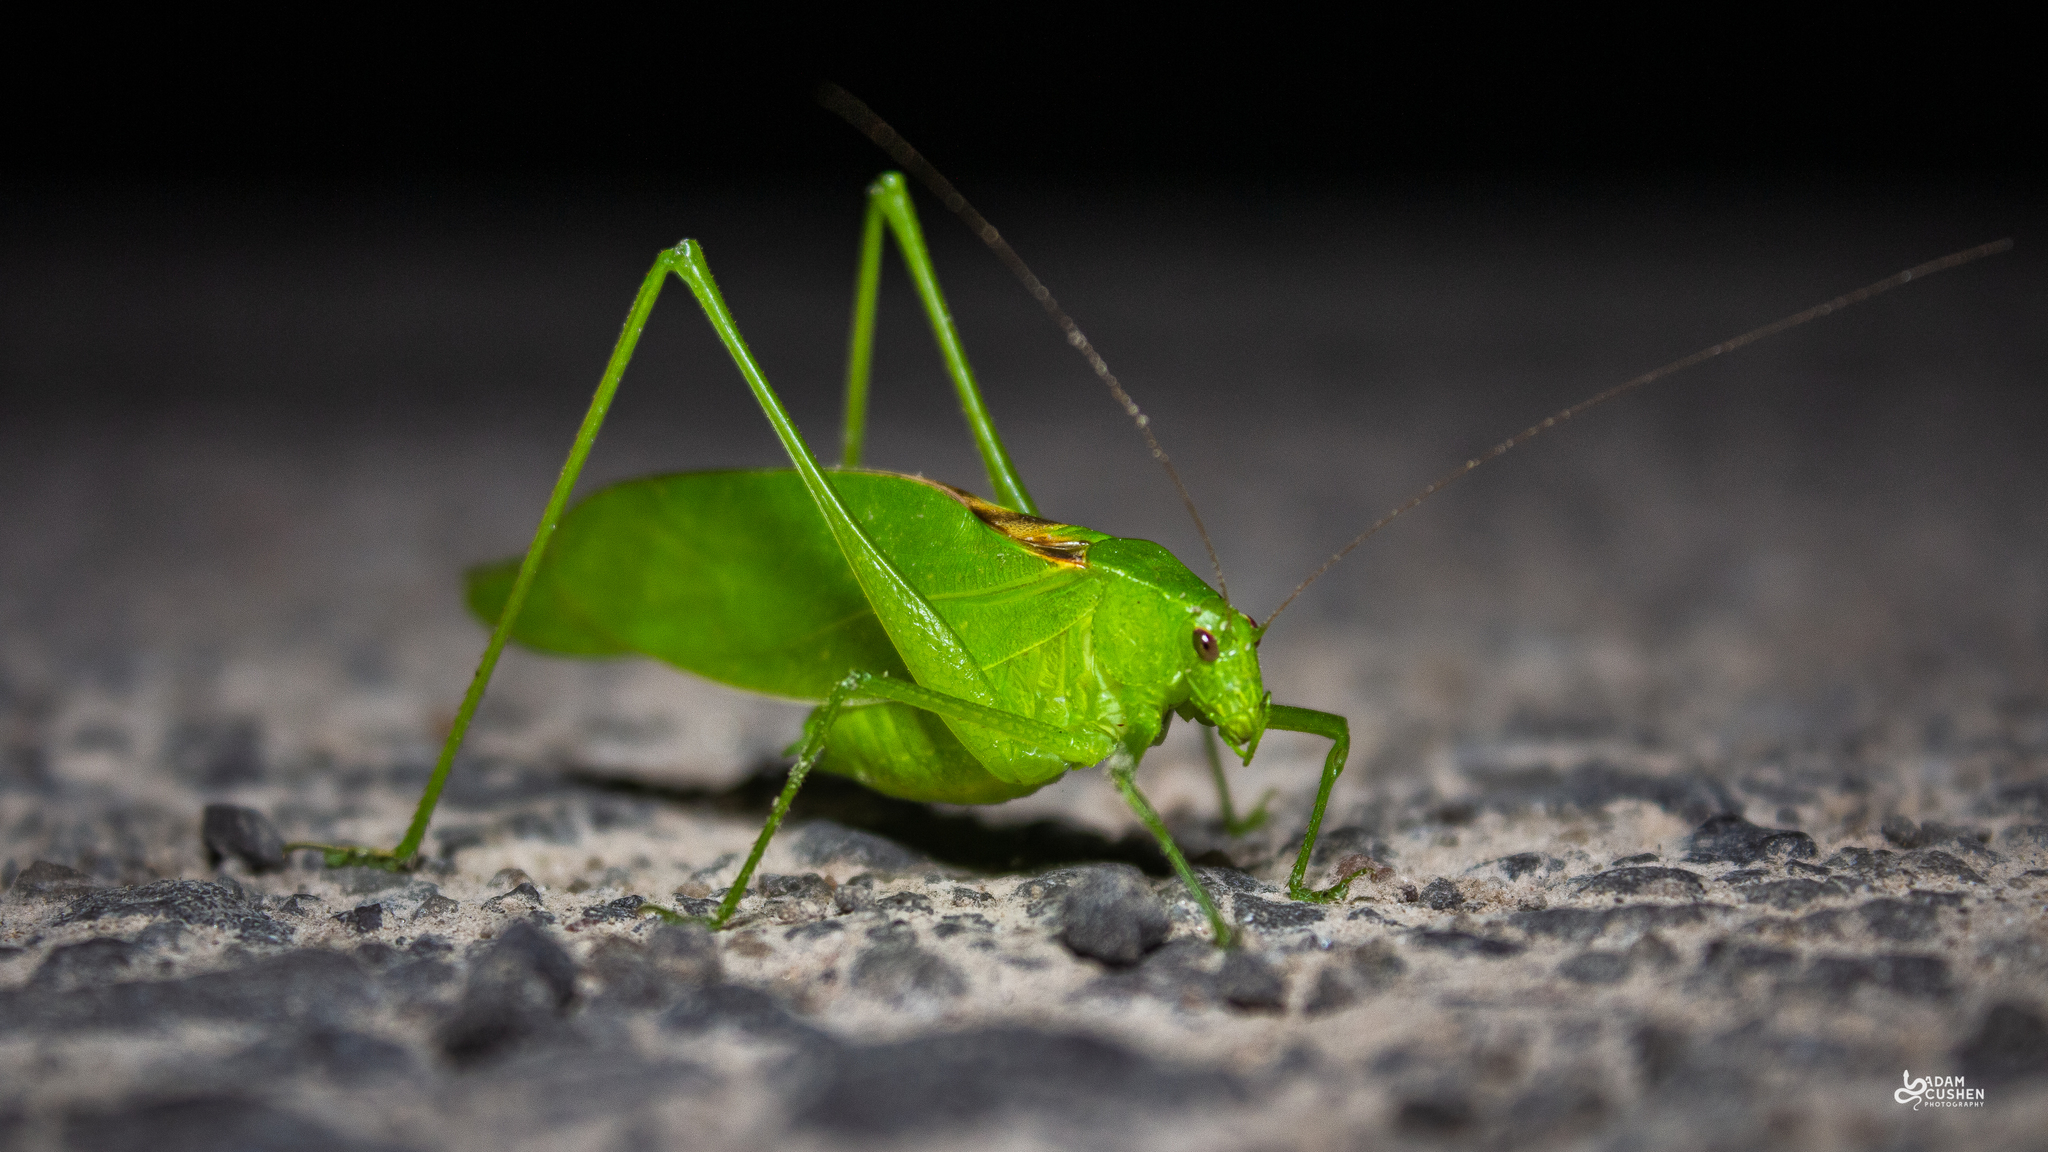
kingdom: Animalia
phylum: Arthropoda
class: Insecta
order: Orthoptera
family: Tettigoniidae
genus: Amblycorypha
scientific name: Amblycorypha oblongifolia
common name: Oblong-winged katydid
